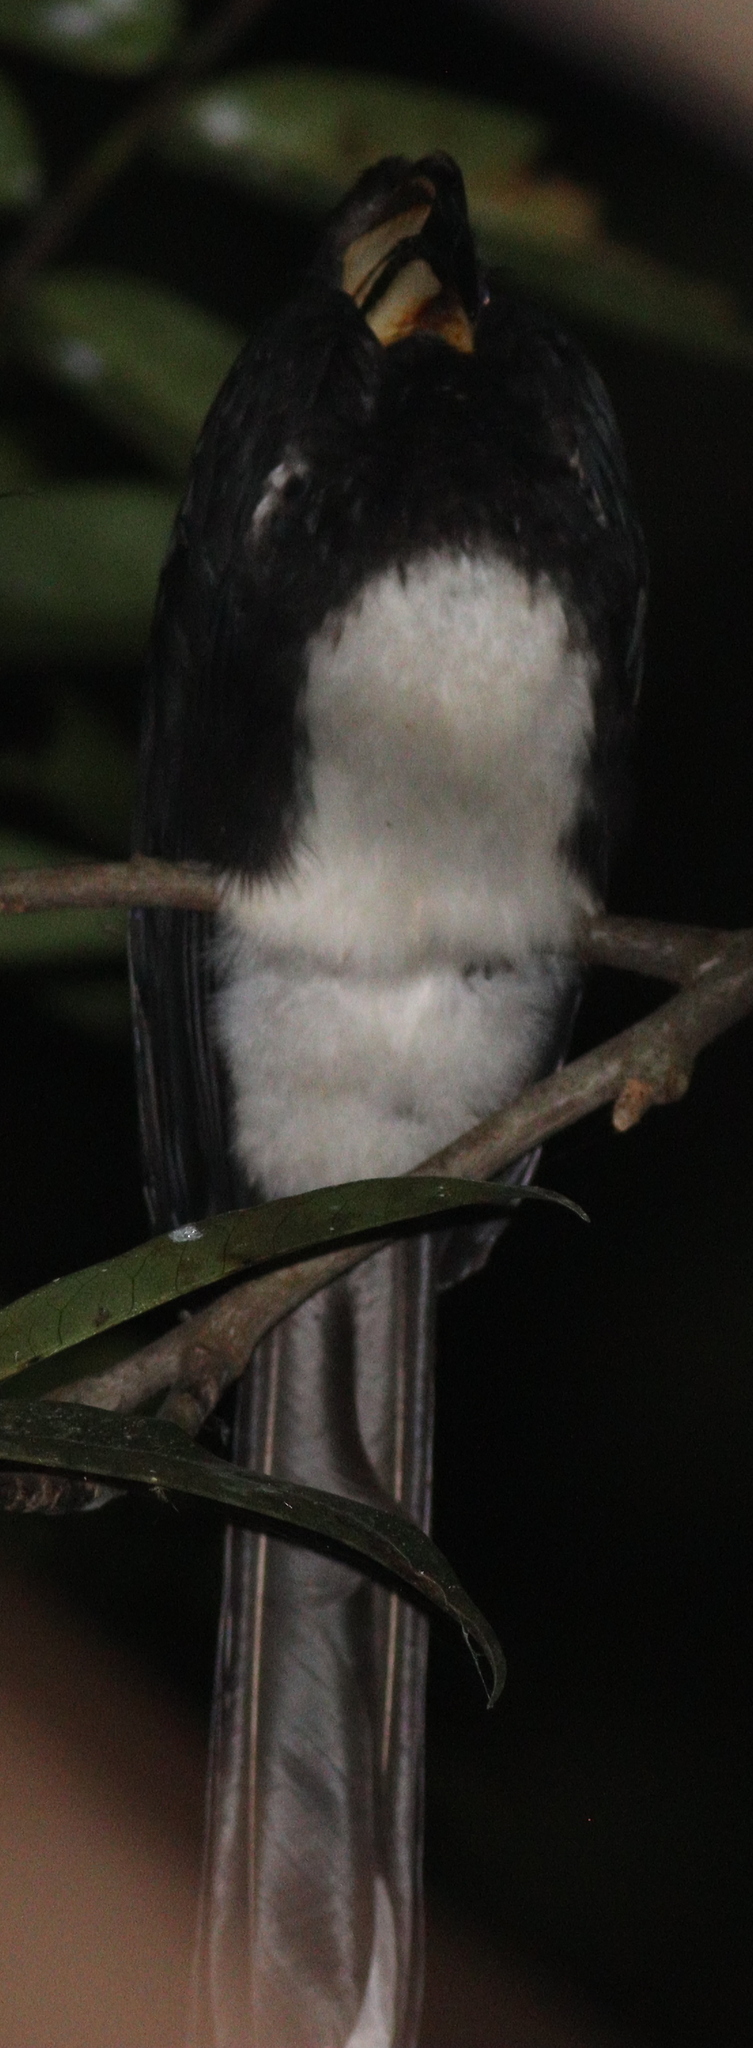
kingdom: Animalia
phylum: Chordata
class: Aves
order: Bucerotiformes
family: Bucerotidae
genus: Lophoceros
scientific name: Lophoceros fasciatus
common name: African pied hornbill
